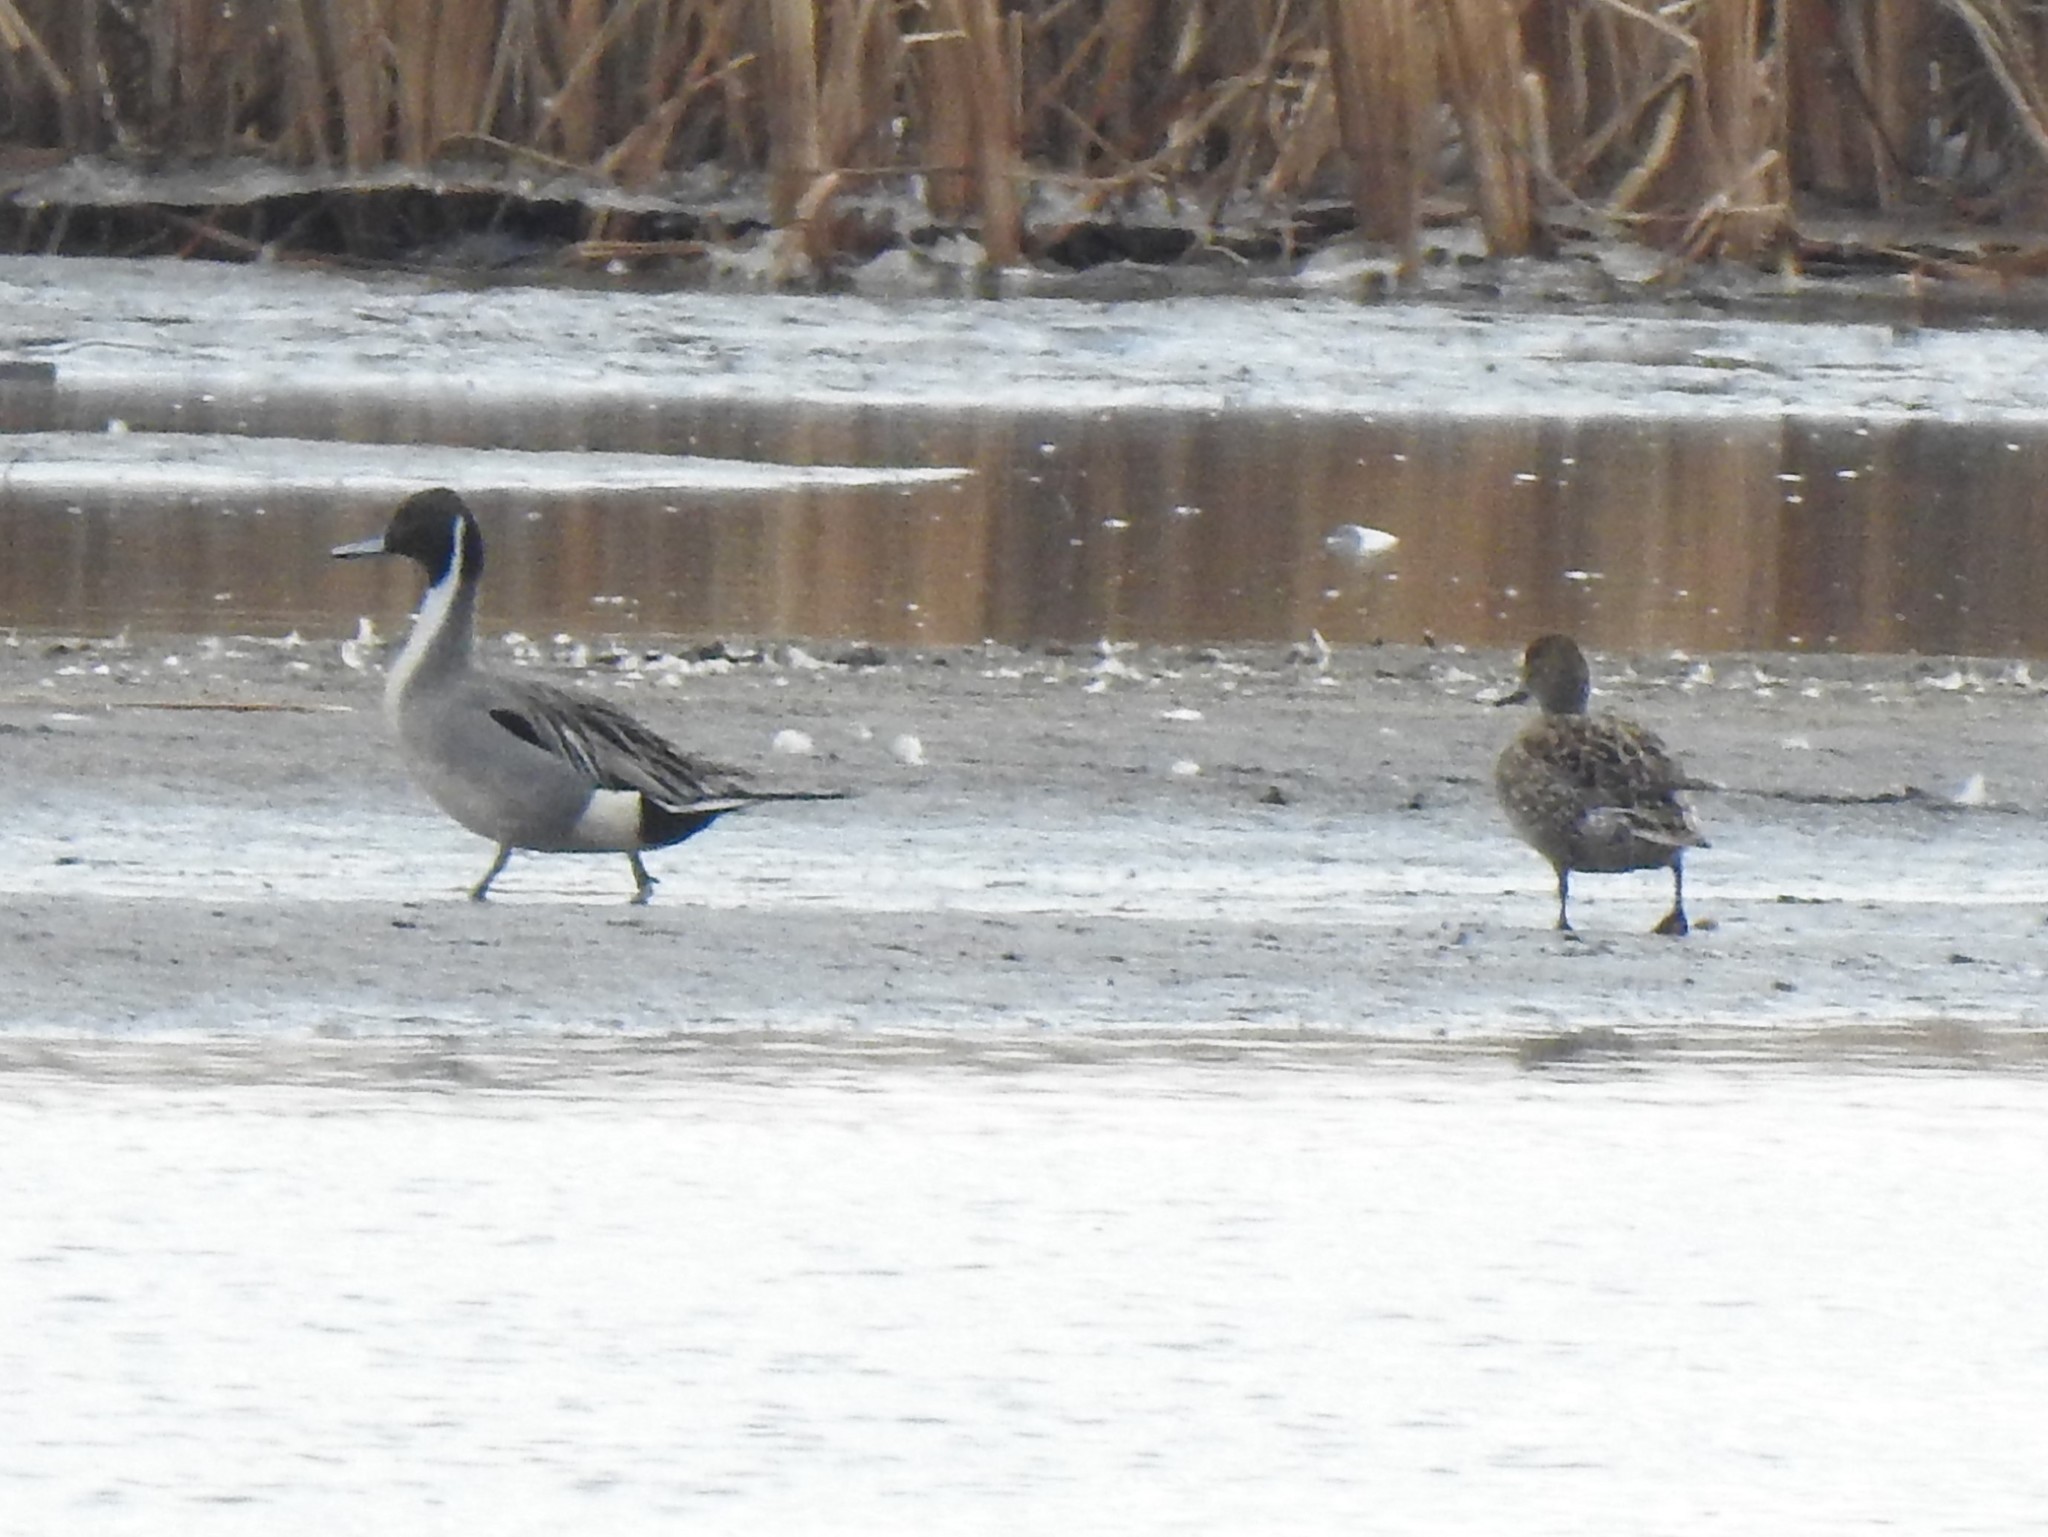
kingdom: Animalia
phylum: Chordata
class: Aves
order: Anseriformes
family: Anatidae
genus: Anas
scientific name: Anas acuta
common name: Northern pintail
